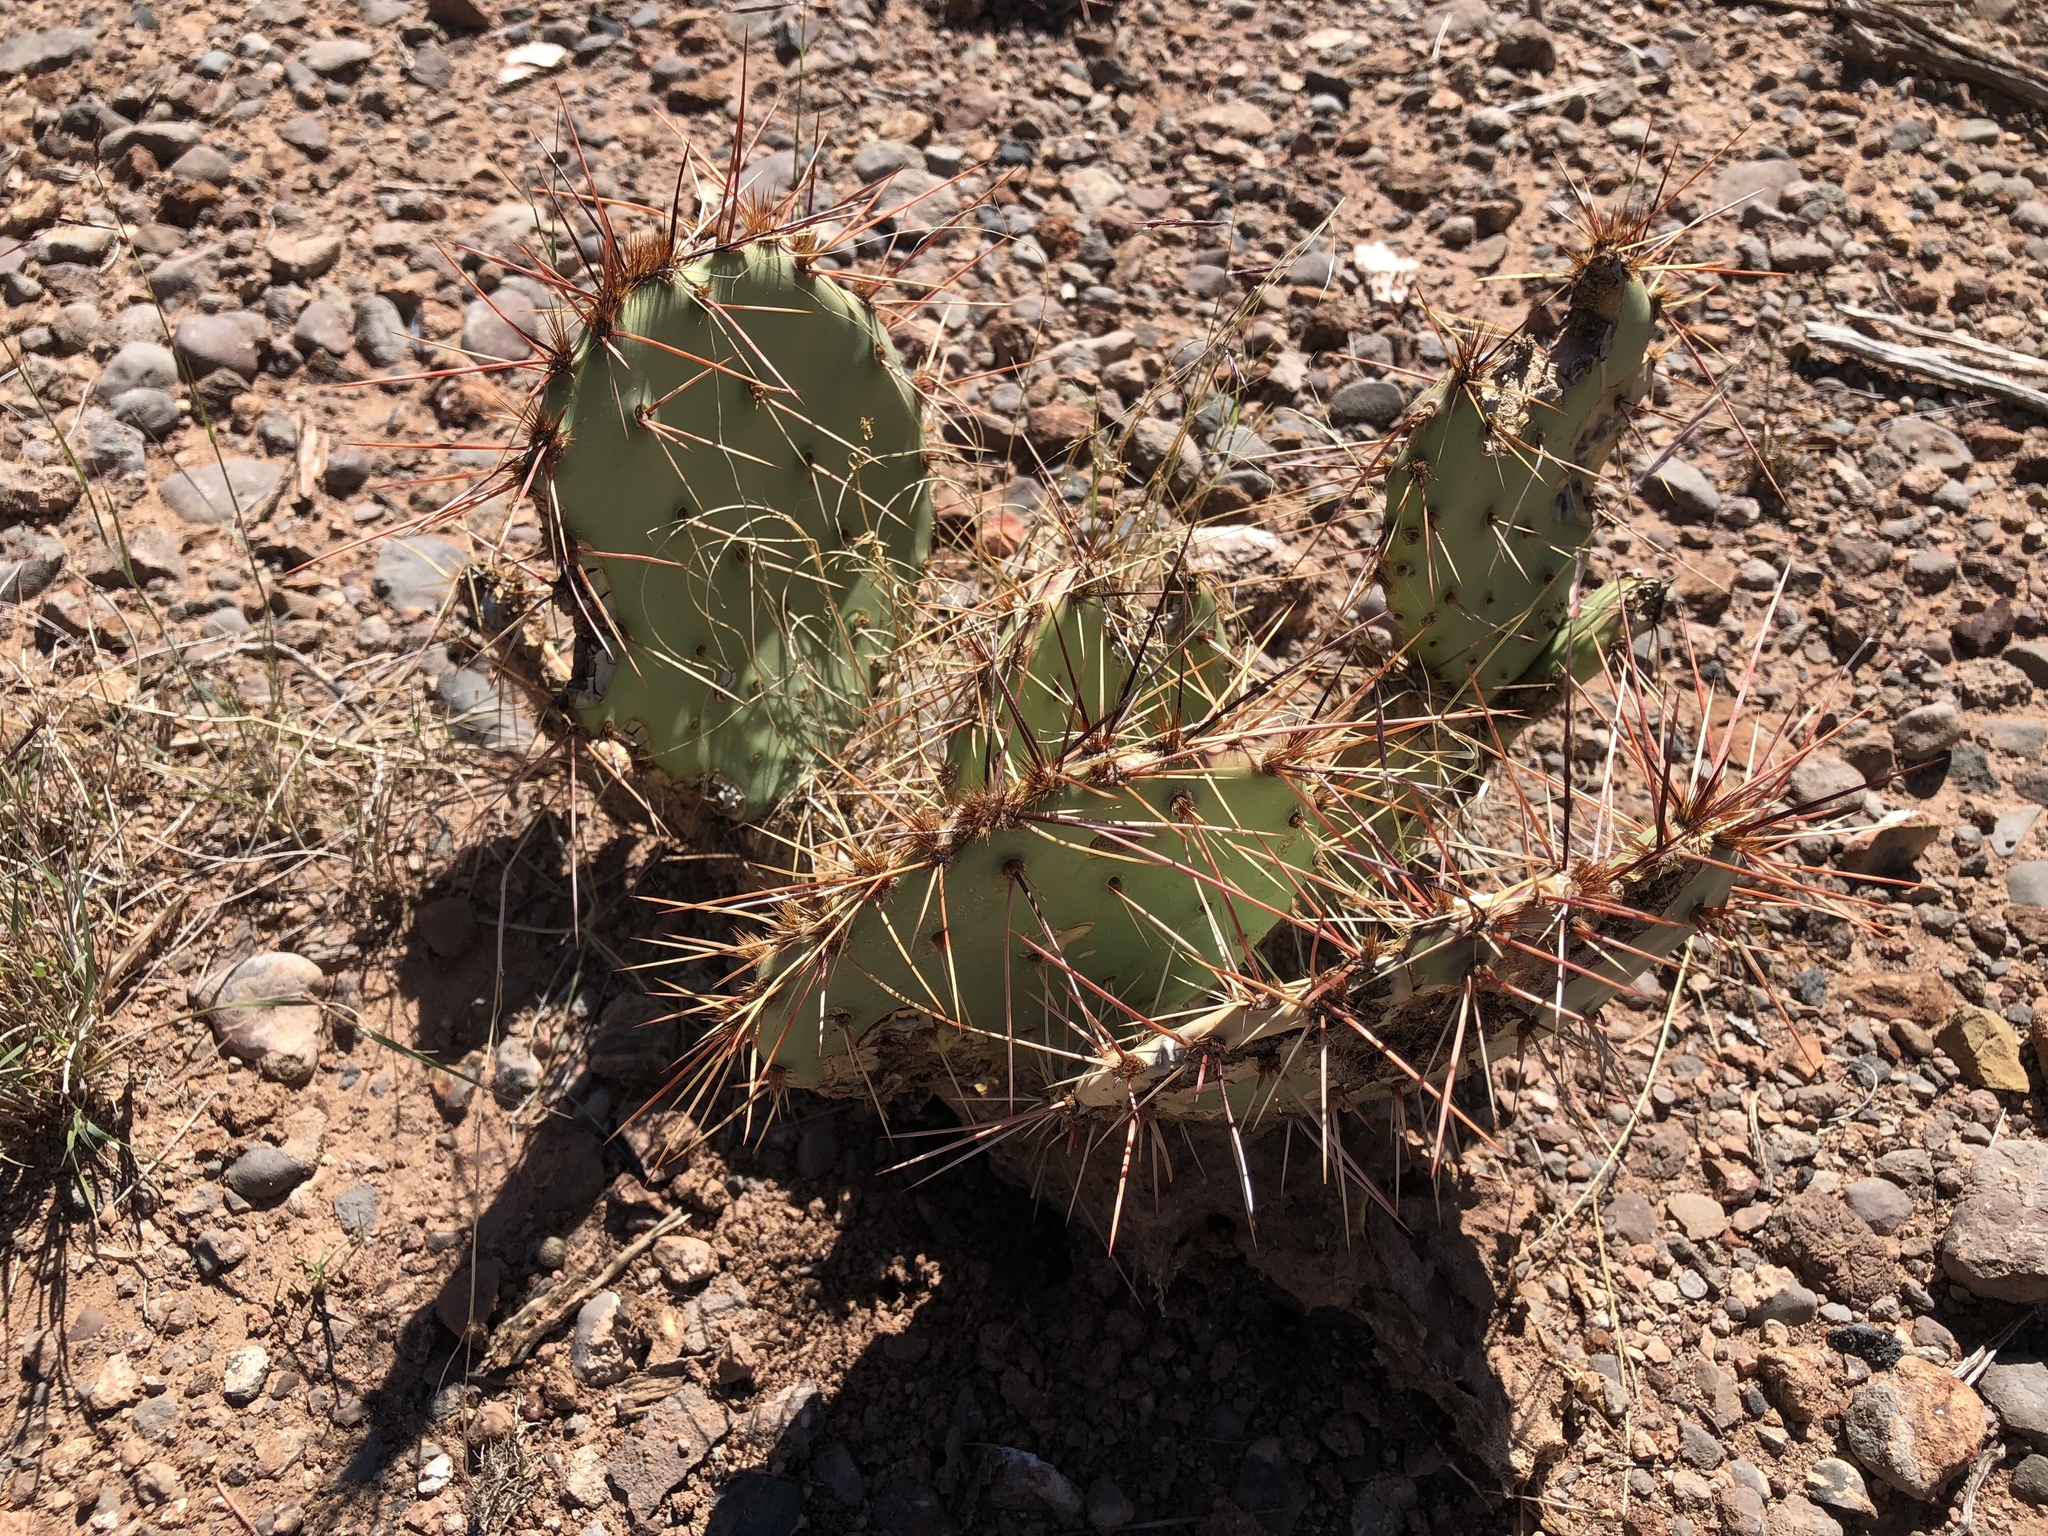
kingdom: Plantae
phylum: Tracheophyta
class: Magnoliopsida
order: Caryophyllales
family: Cactaceae
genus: Opuntia
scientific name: Opuntia phaeacantha
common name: New mexico prickly-pear
